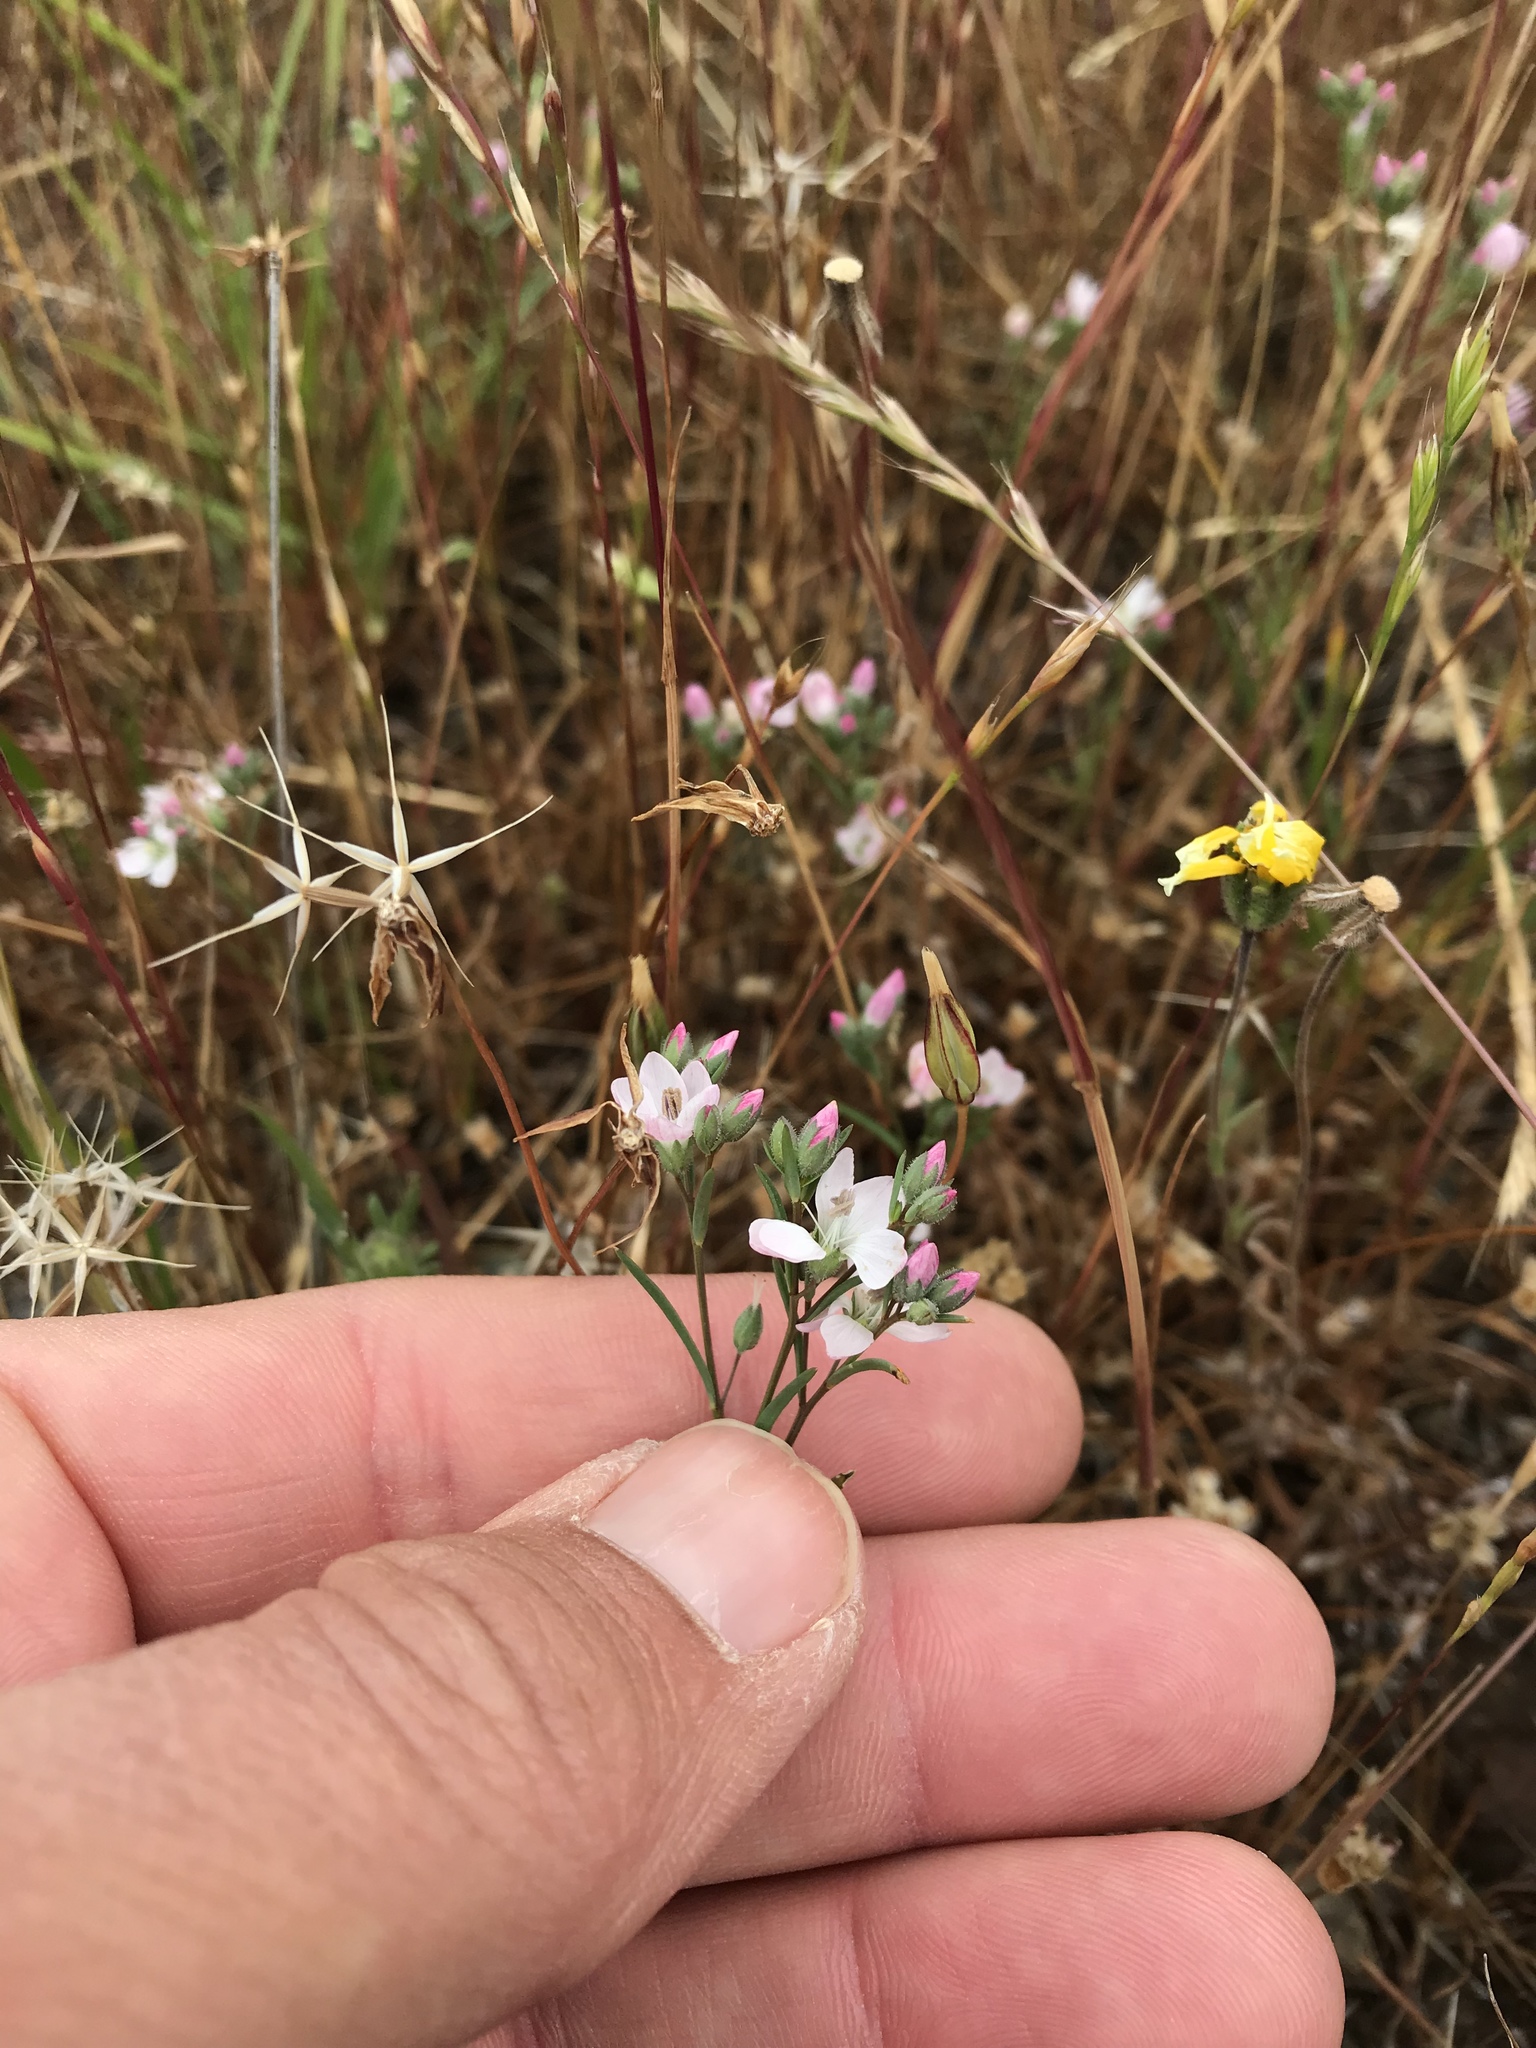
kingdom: Plantae
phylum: Tracheophyta
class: Magnoliopsida
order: Malpighiales
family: Linaceae
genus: Hesperolinon
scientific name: Hesperolinon congestum
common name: Marin dwarf-flax
